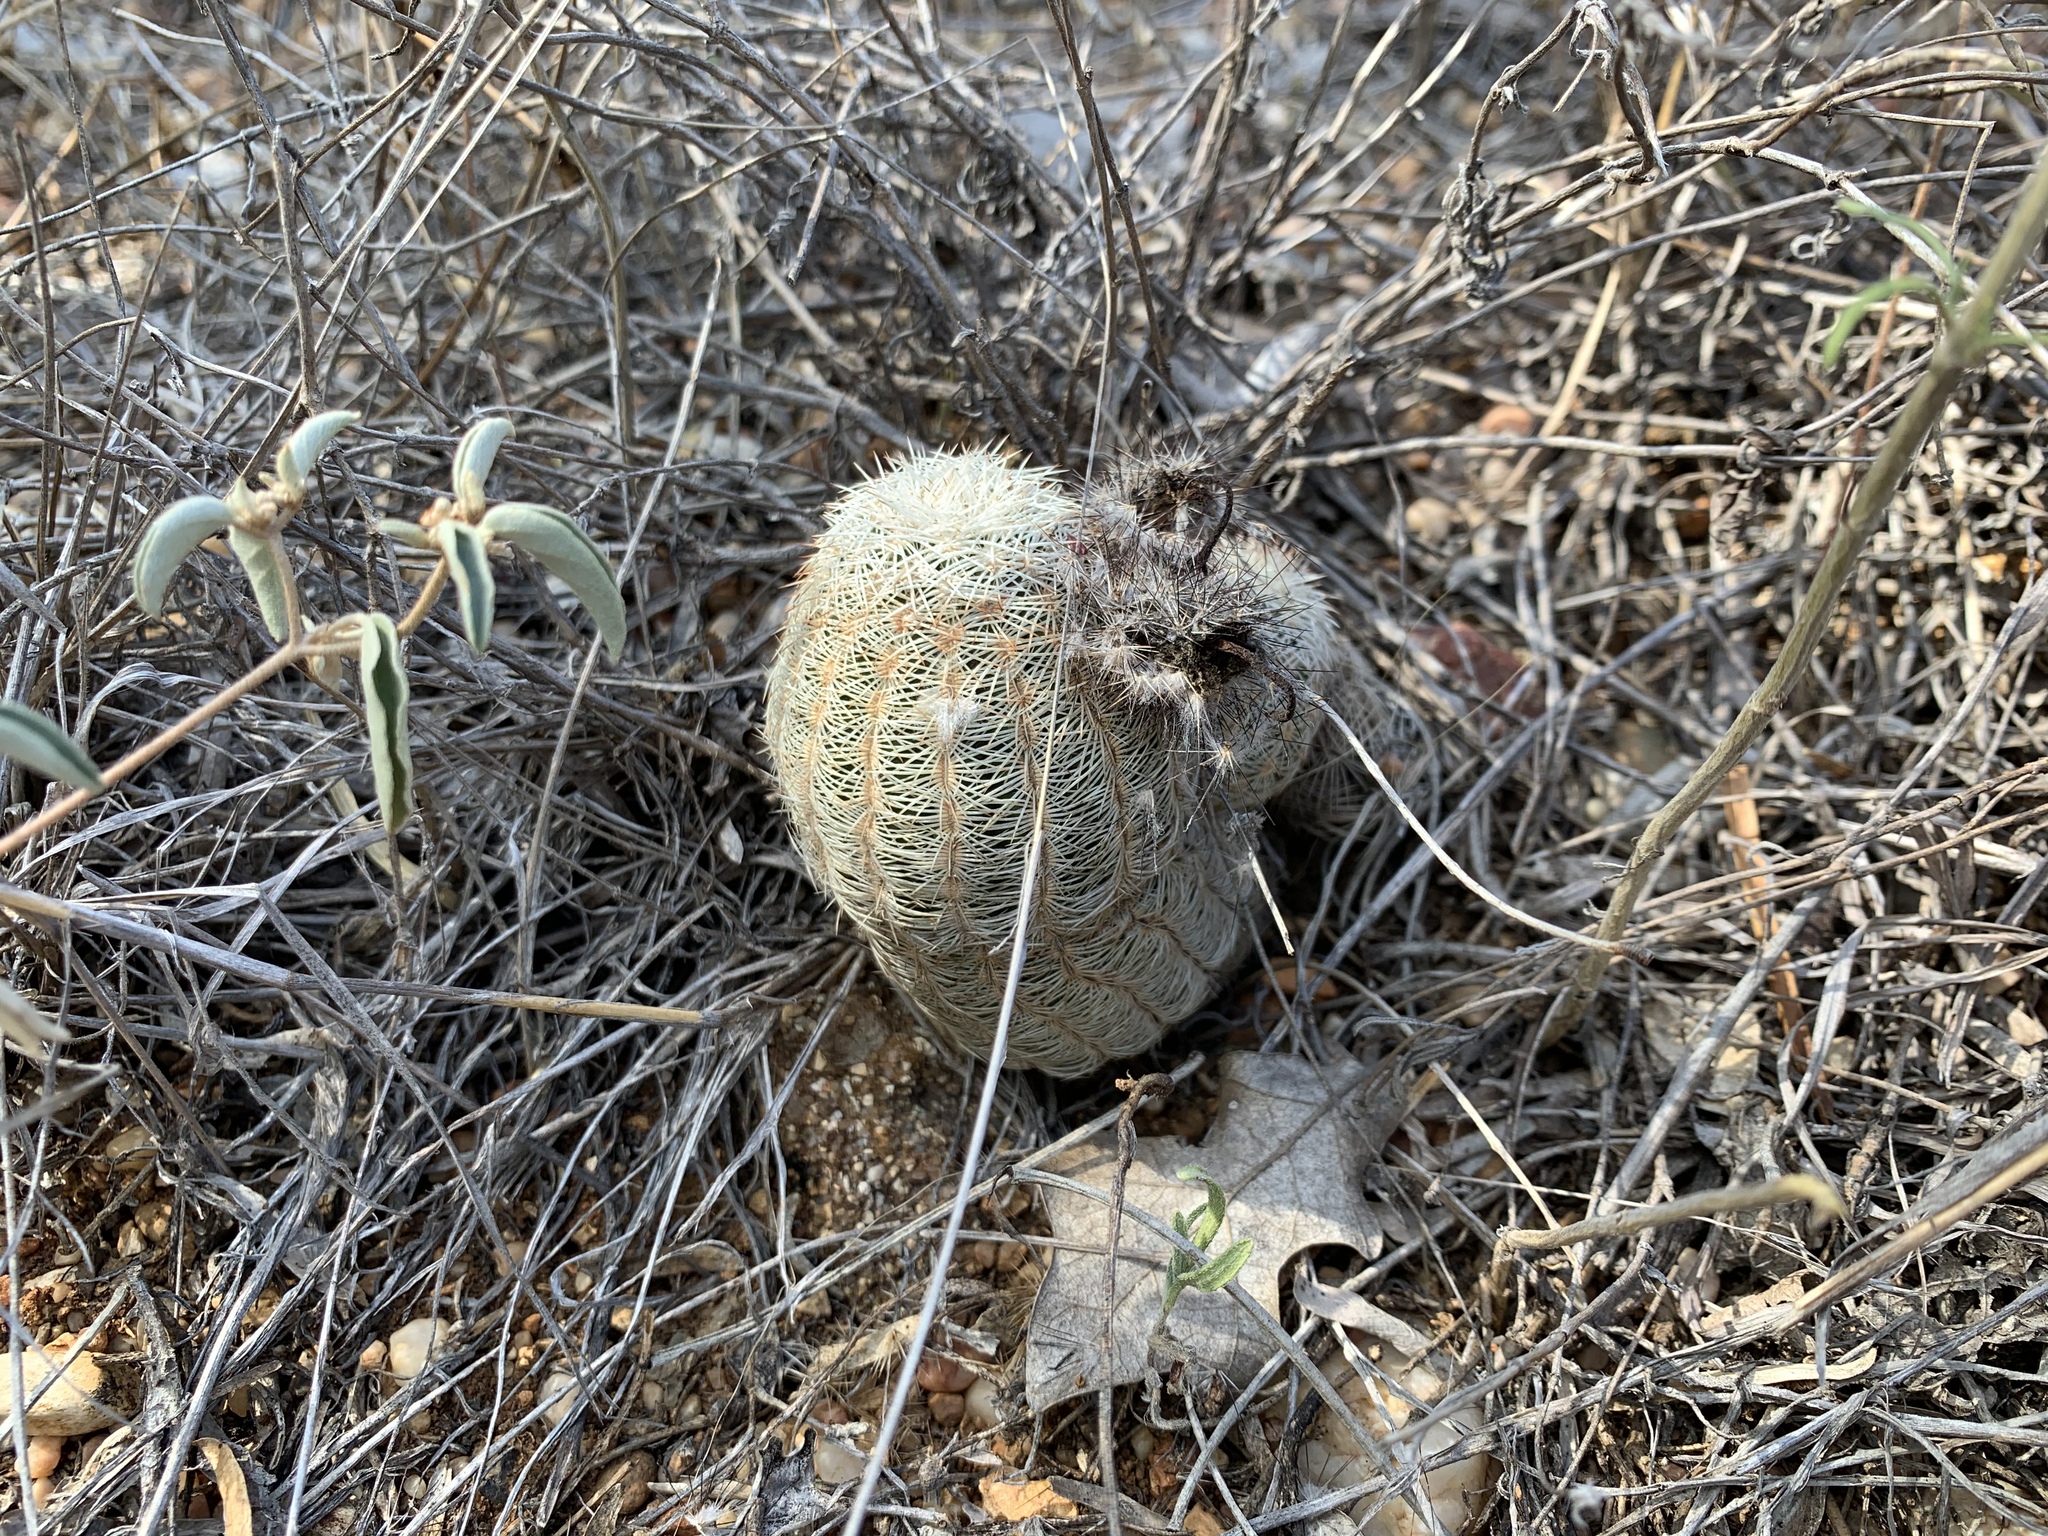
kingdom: Plantae
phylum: Tracheophyta
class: Magnoliopsida
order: Caryophyllales
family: Cactaceae
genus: Echinocereus
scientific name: Echinocereus reichenbachii
